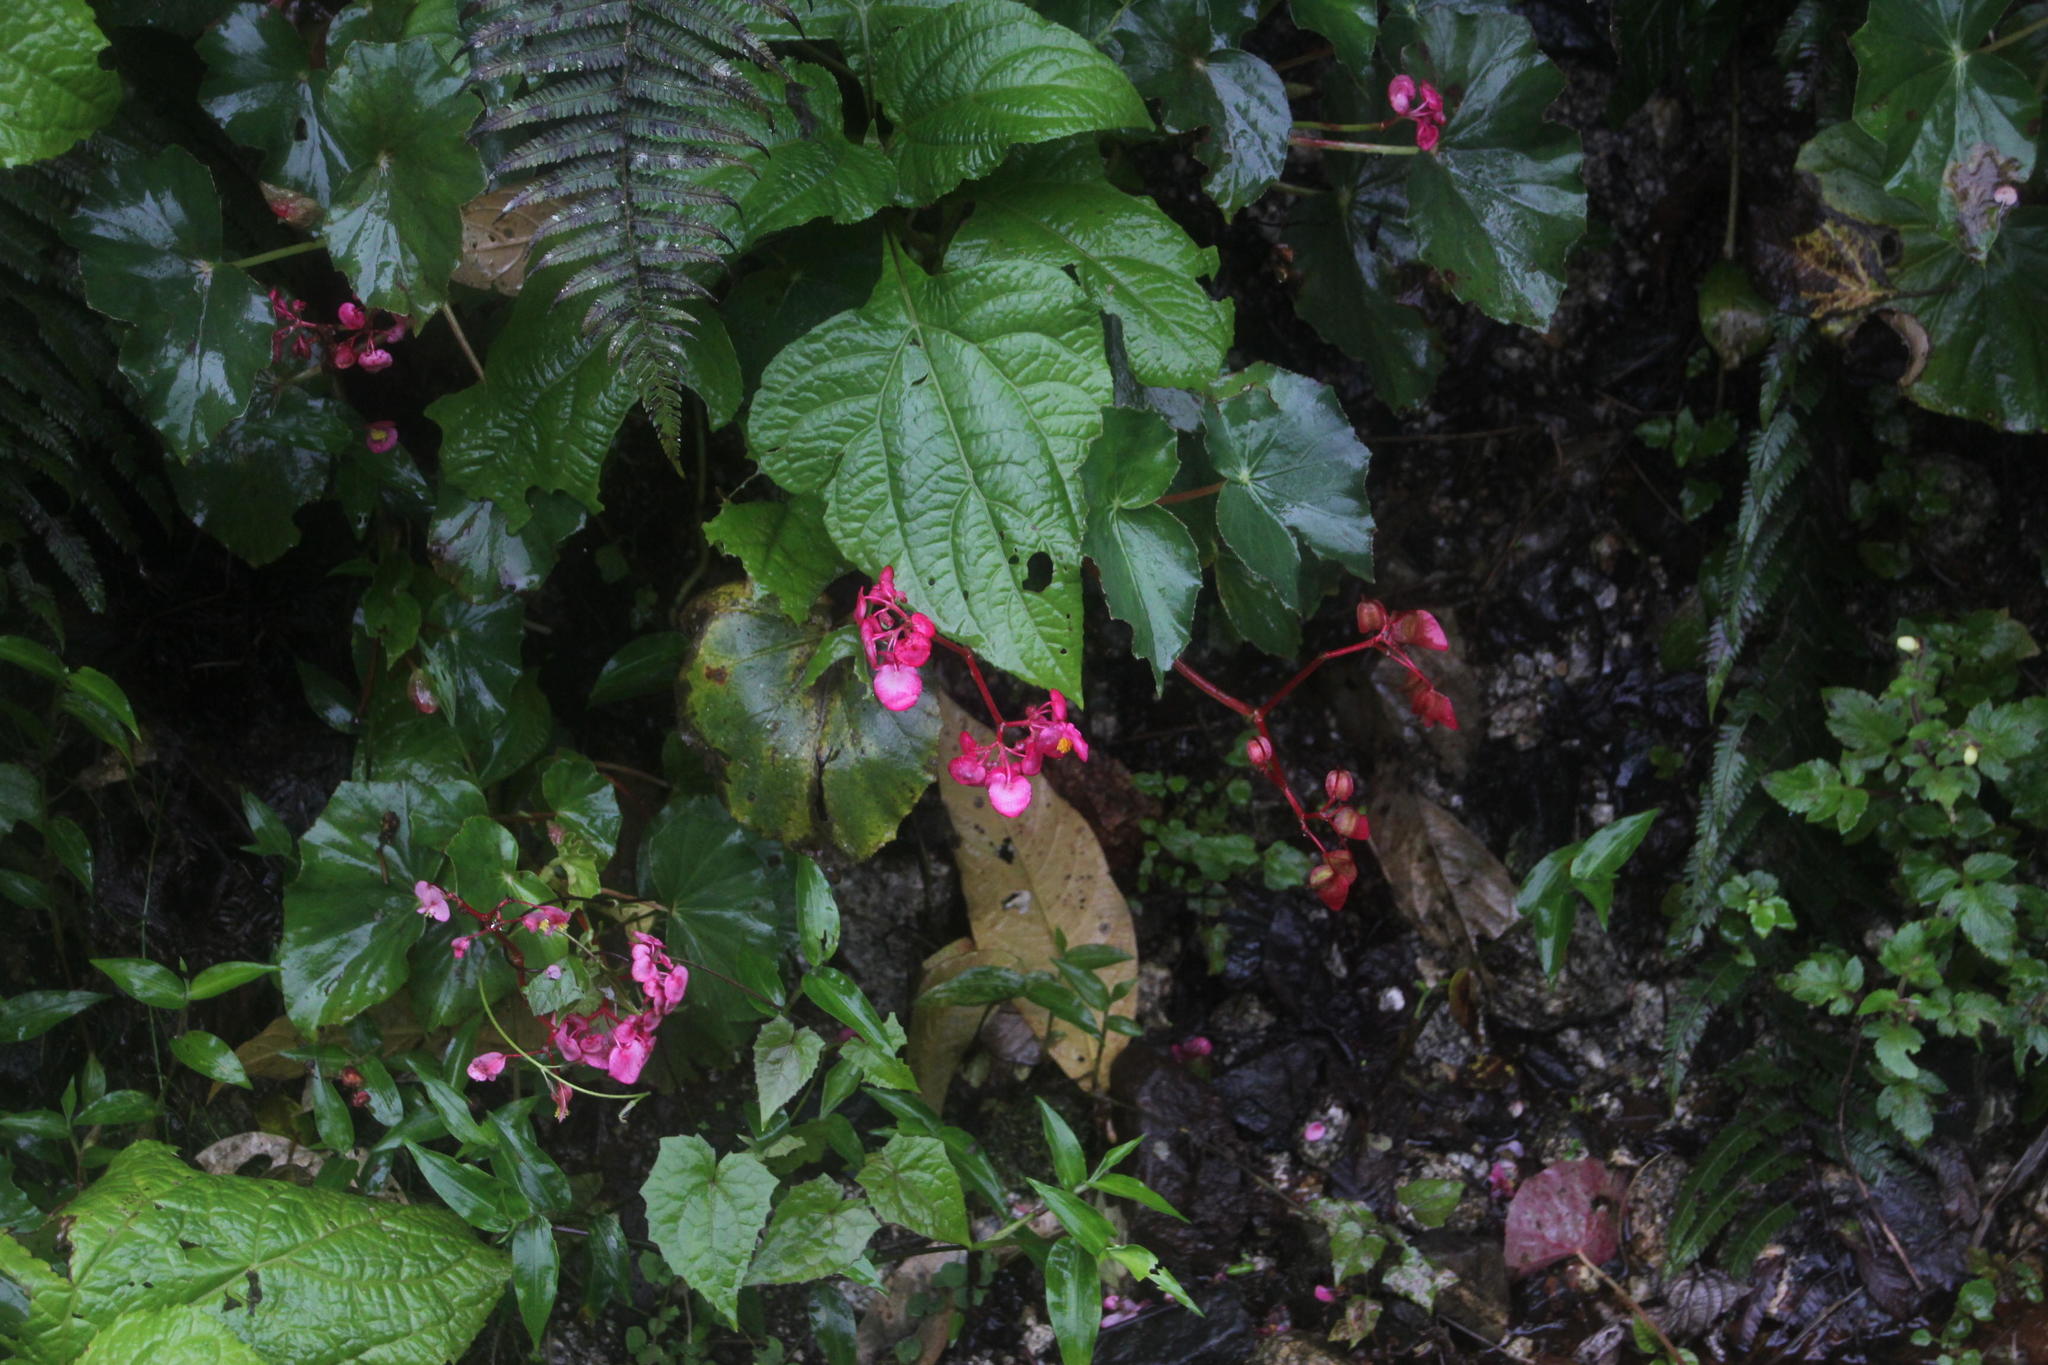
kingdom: Plantae
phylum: Tracheophyta
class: Magnoliopsida
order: Cucurbitales
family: Begoniaceae
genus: Begonia
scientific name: Begonia bracteosa
